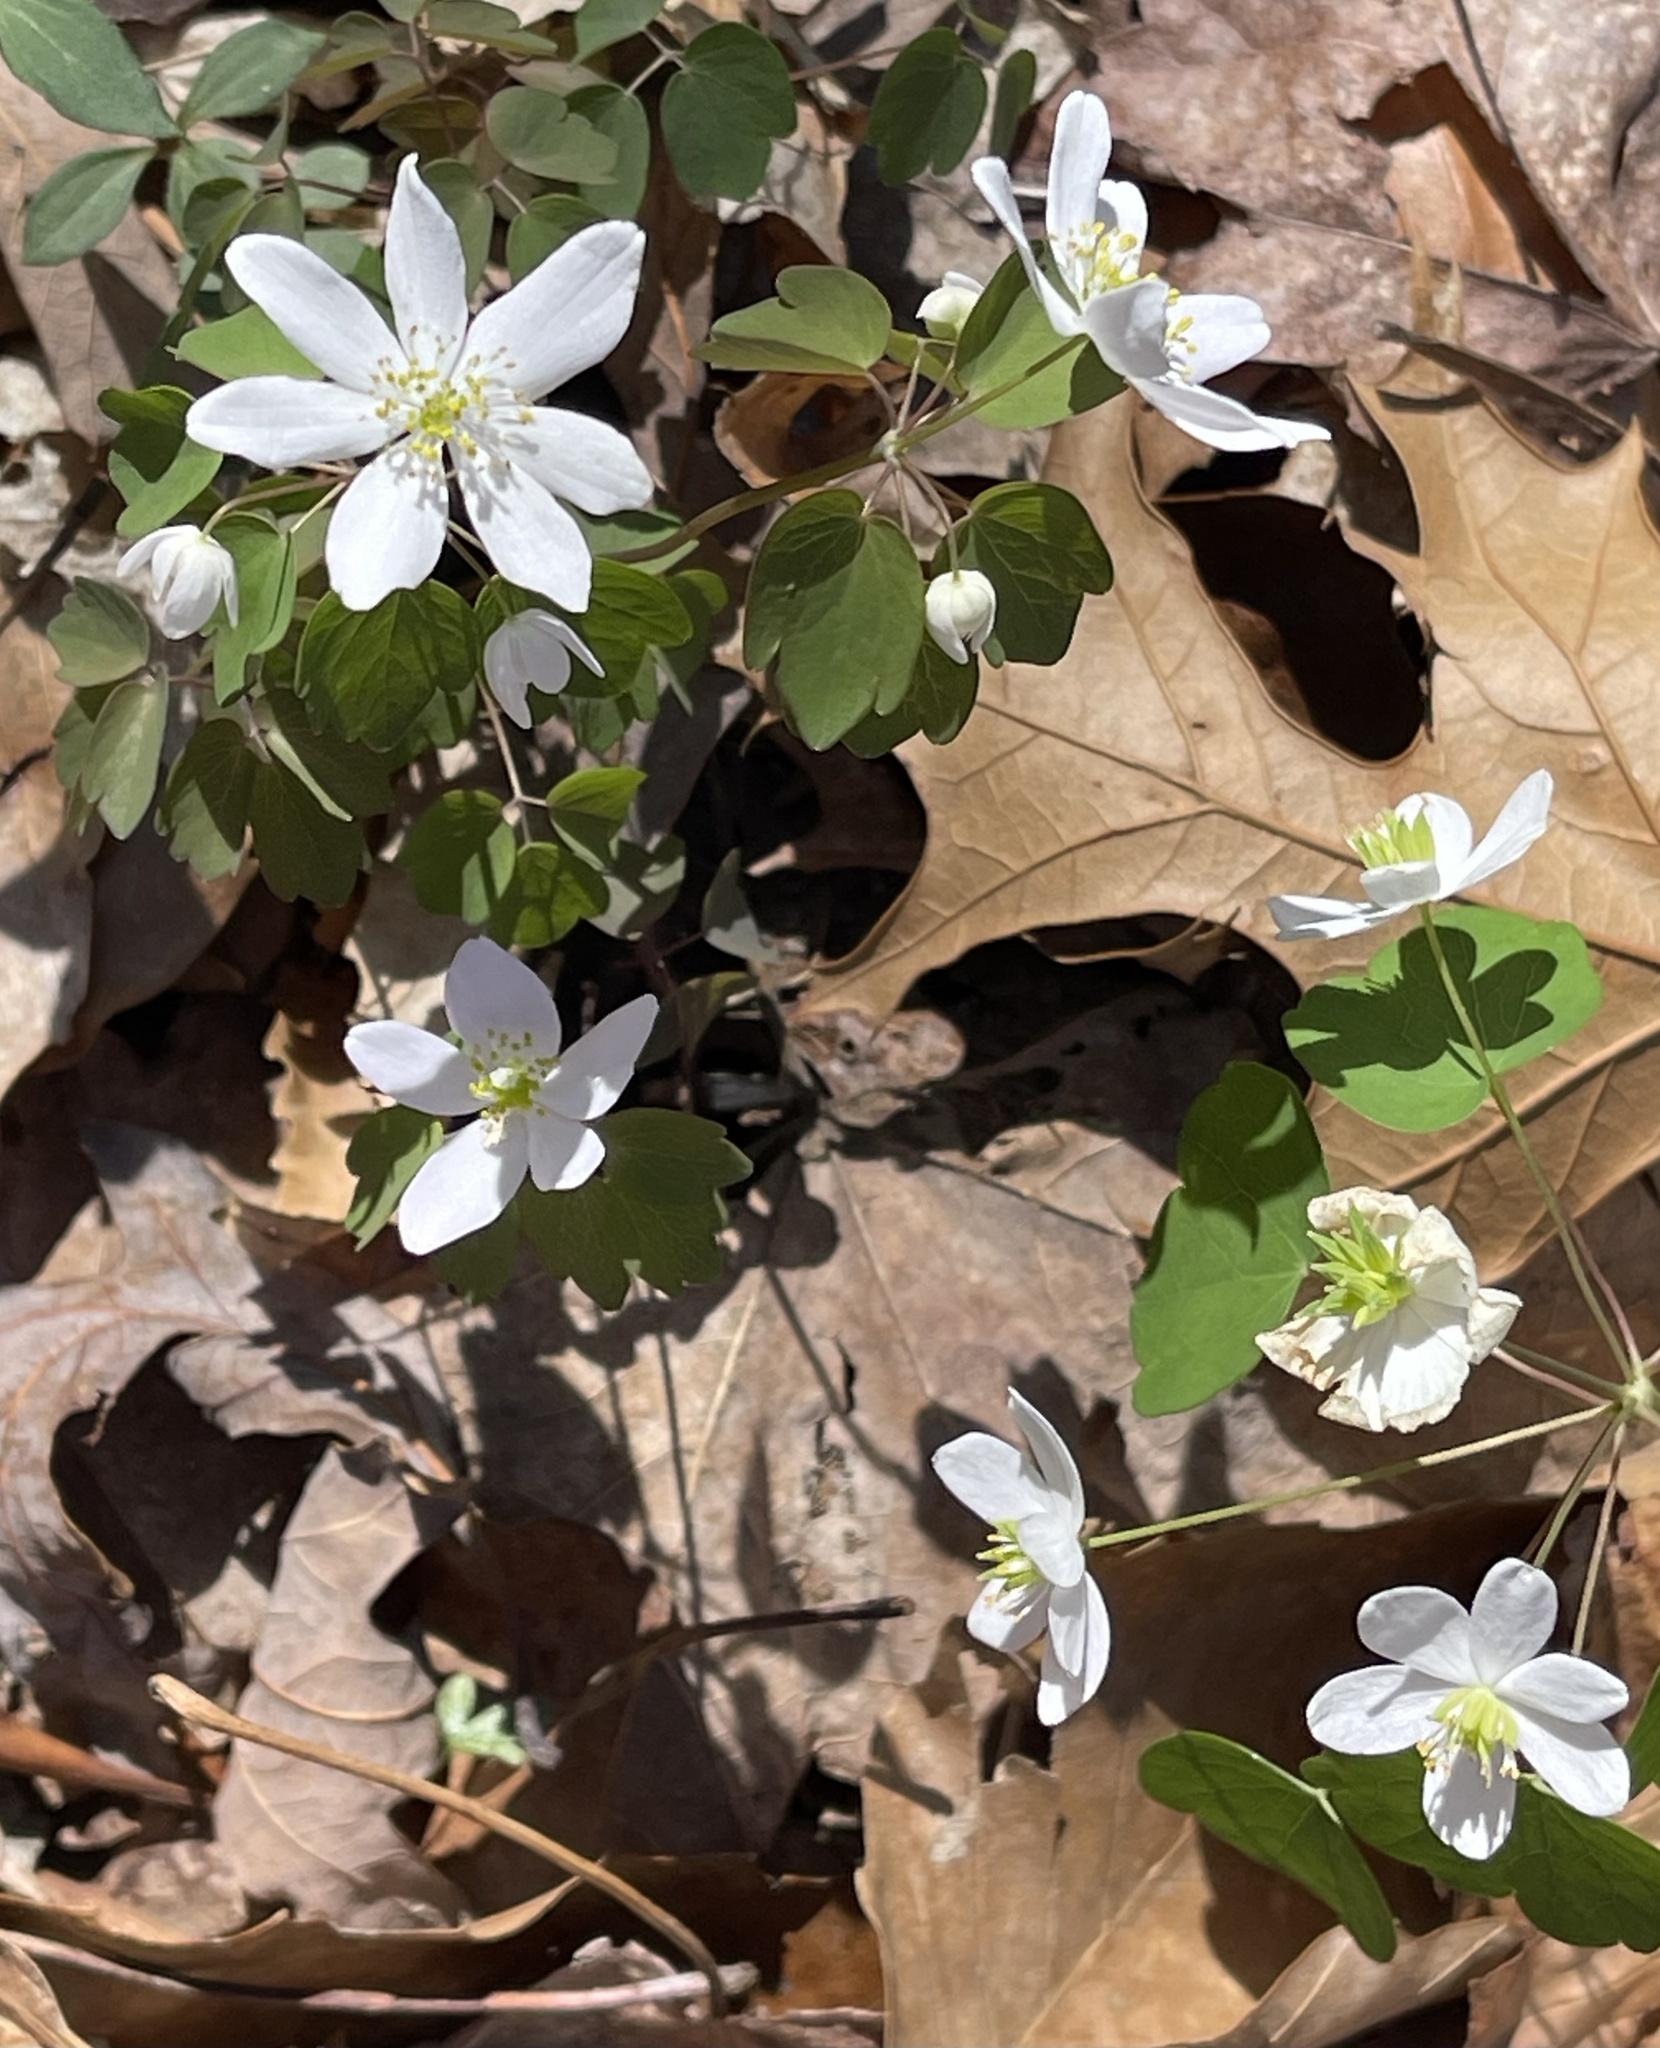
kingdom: Plantae
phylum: Tracheophyta
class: Magnoliopsida
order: Ranunculales
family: Ranunculaceae
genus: Thalictrum
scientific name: Thalictrum thalictroides
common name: Rue-anemone
